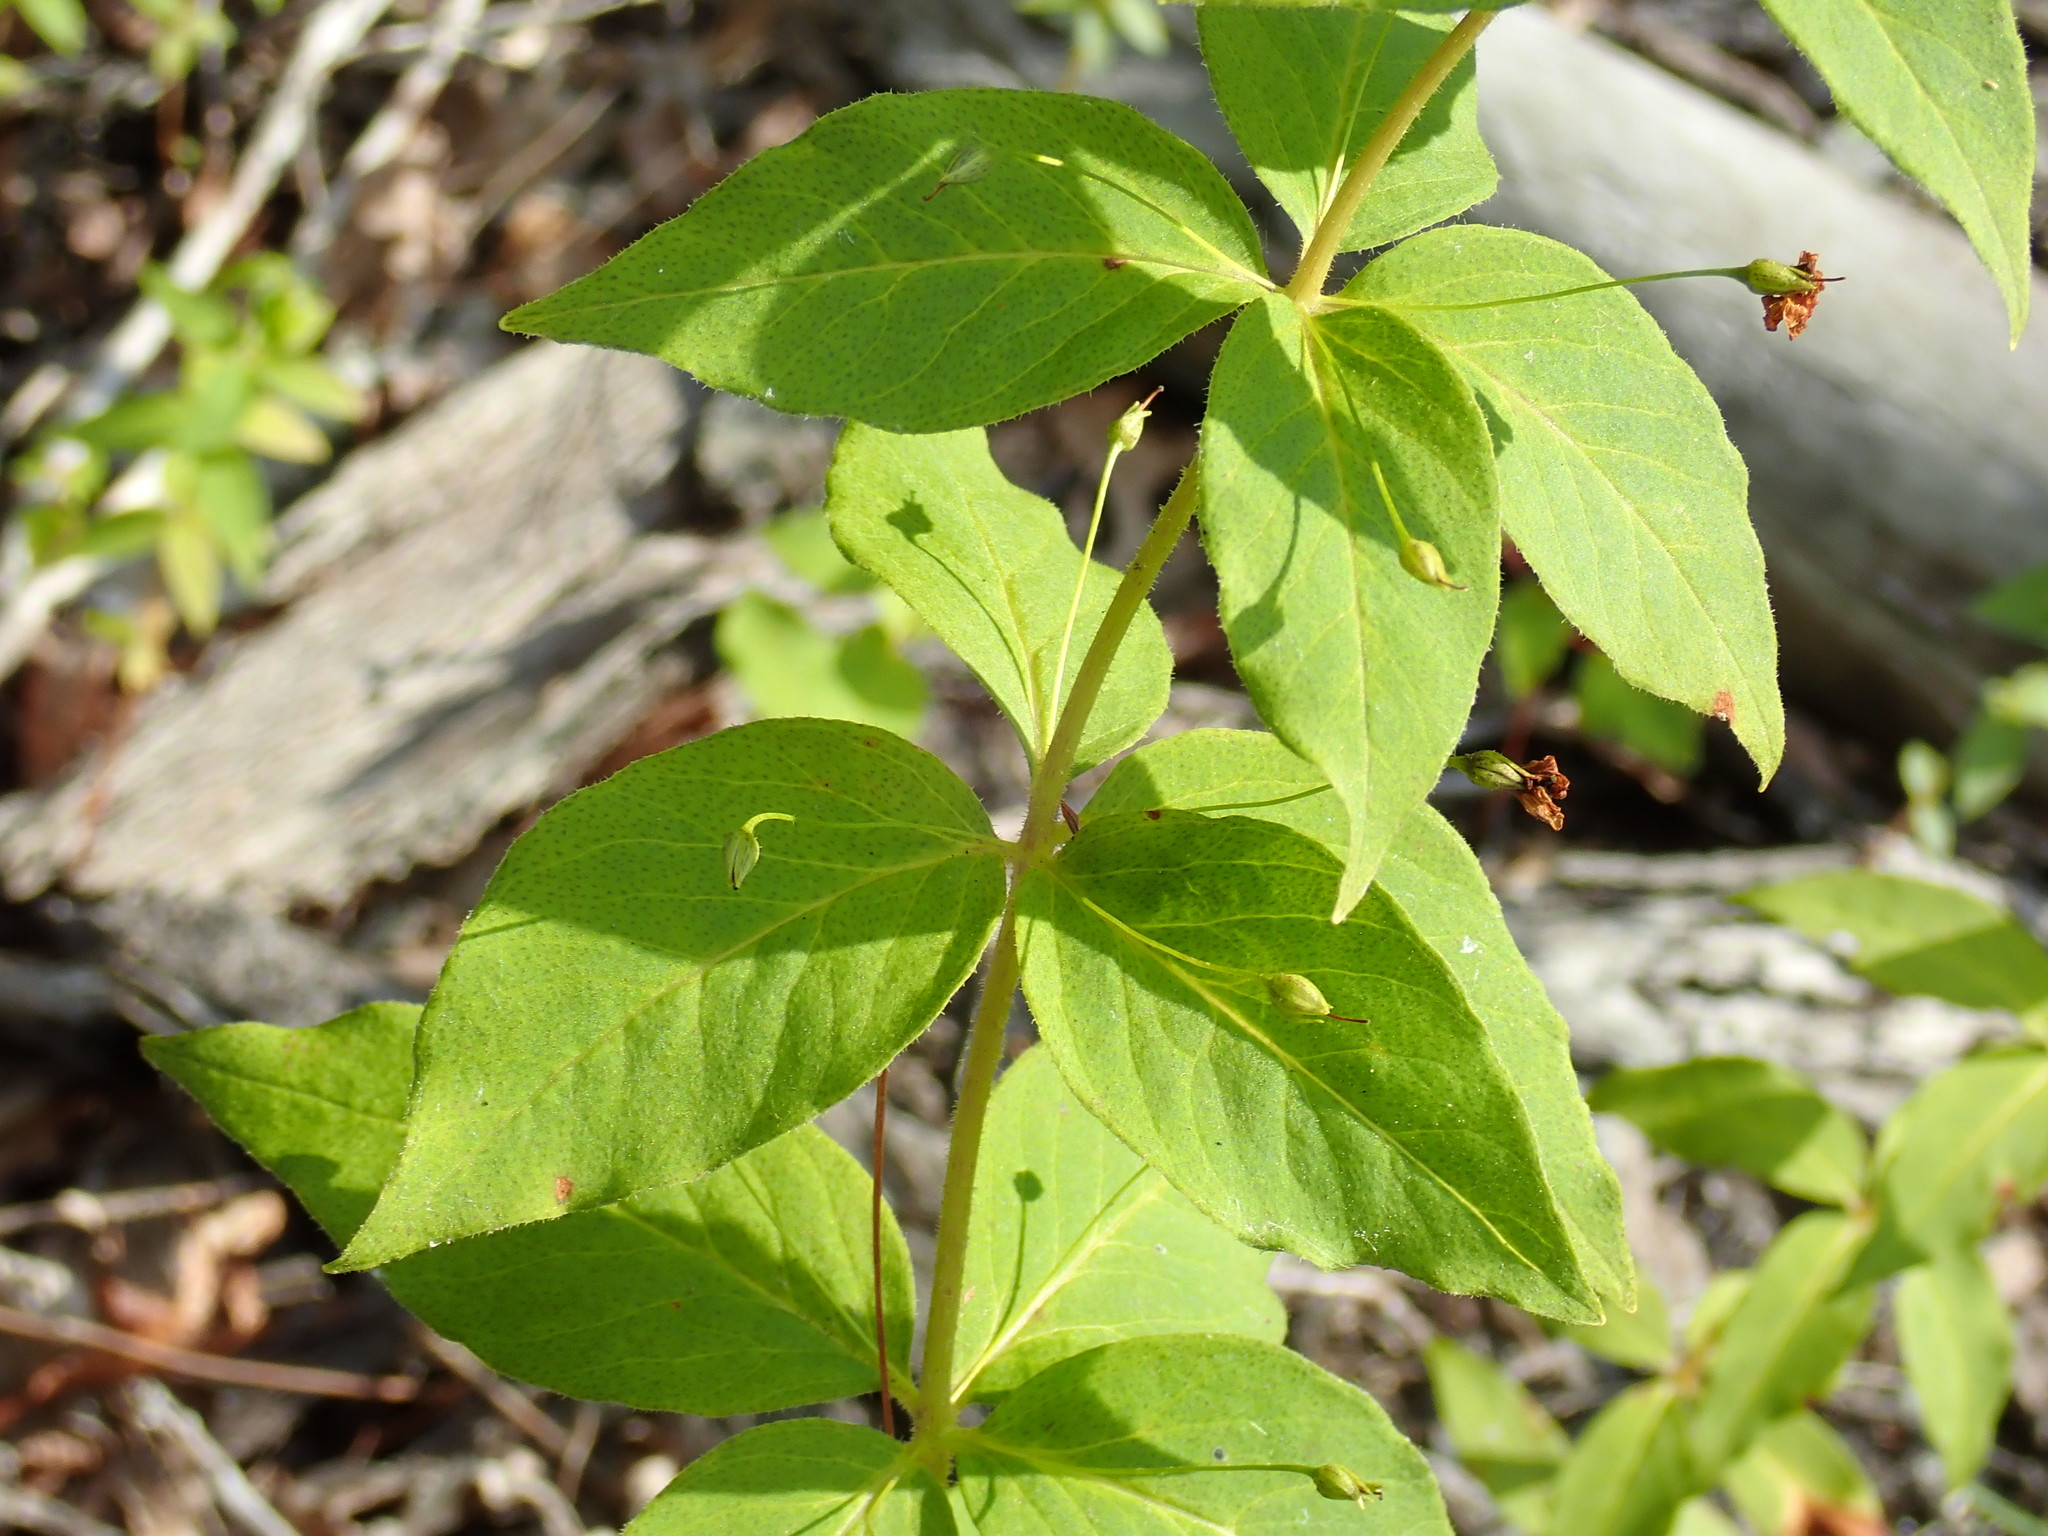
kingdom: Plantae
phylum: Tracheophyta
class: Magnoliopsida
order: Ericales
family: Primulaceae
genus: Lysimachia
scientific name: Lysimachia quadrifolia
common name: Whorled loosestrife
